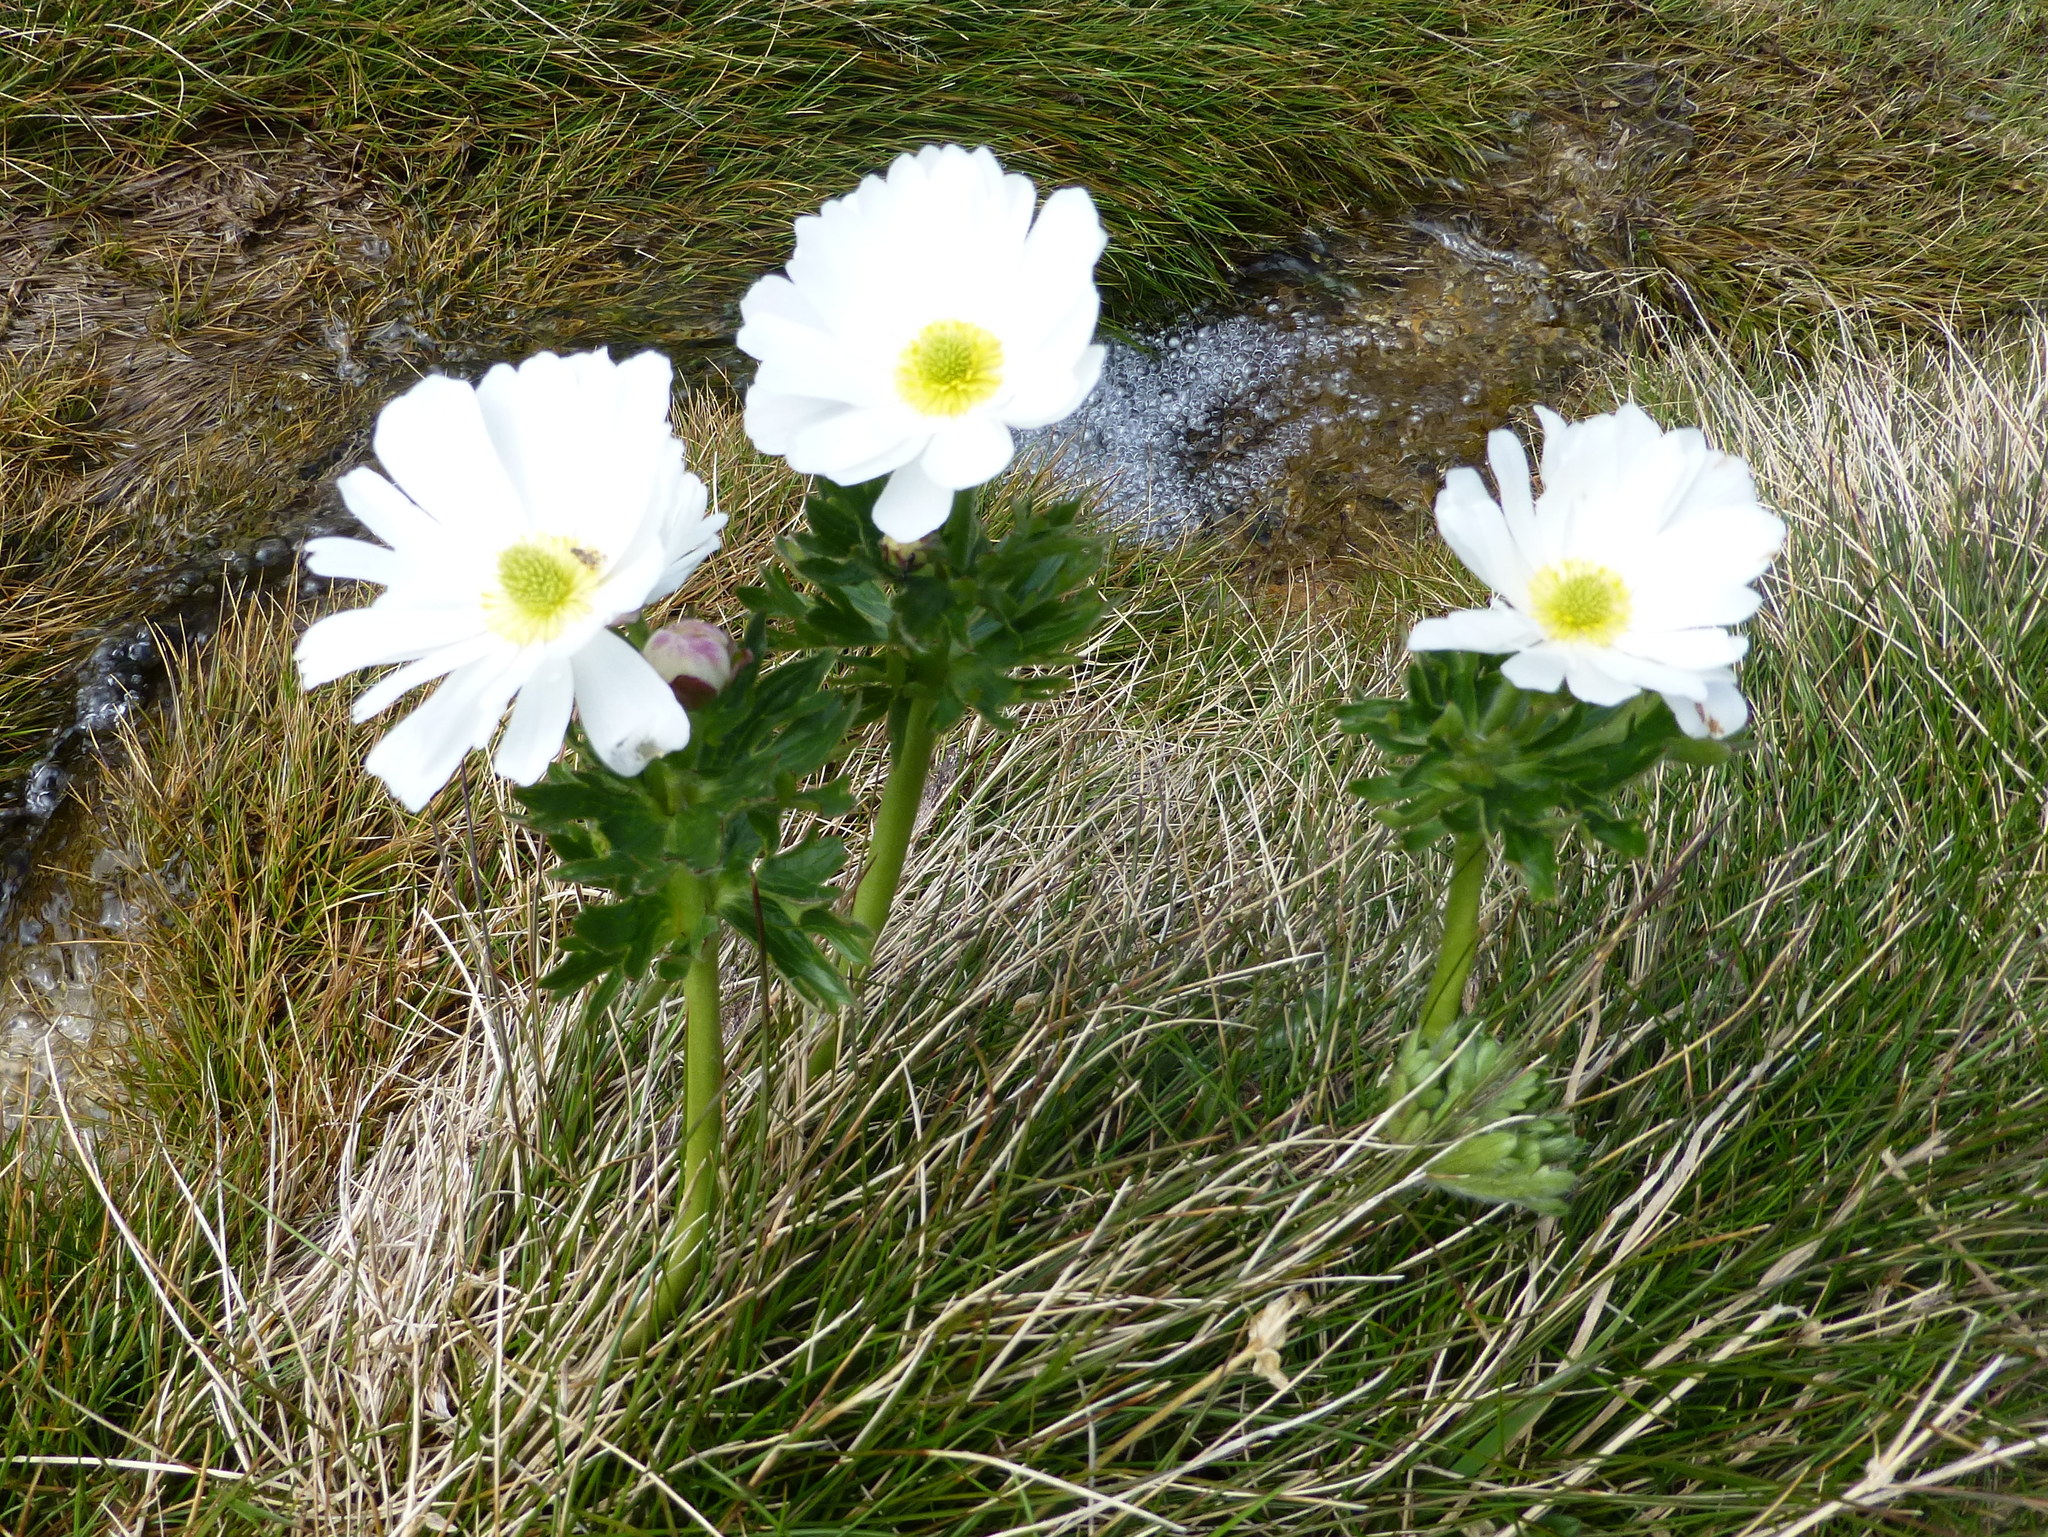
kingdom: Plantae
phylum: Tracheophyta
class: Magnoliopsida
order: Ranunculales
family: Ranunculaceae
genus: Ranunculus
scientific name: Ranunculus anemoneus
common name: Anemone buttercup
